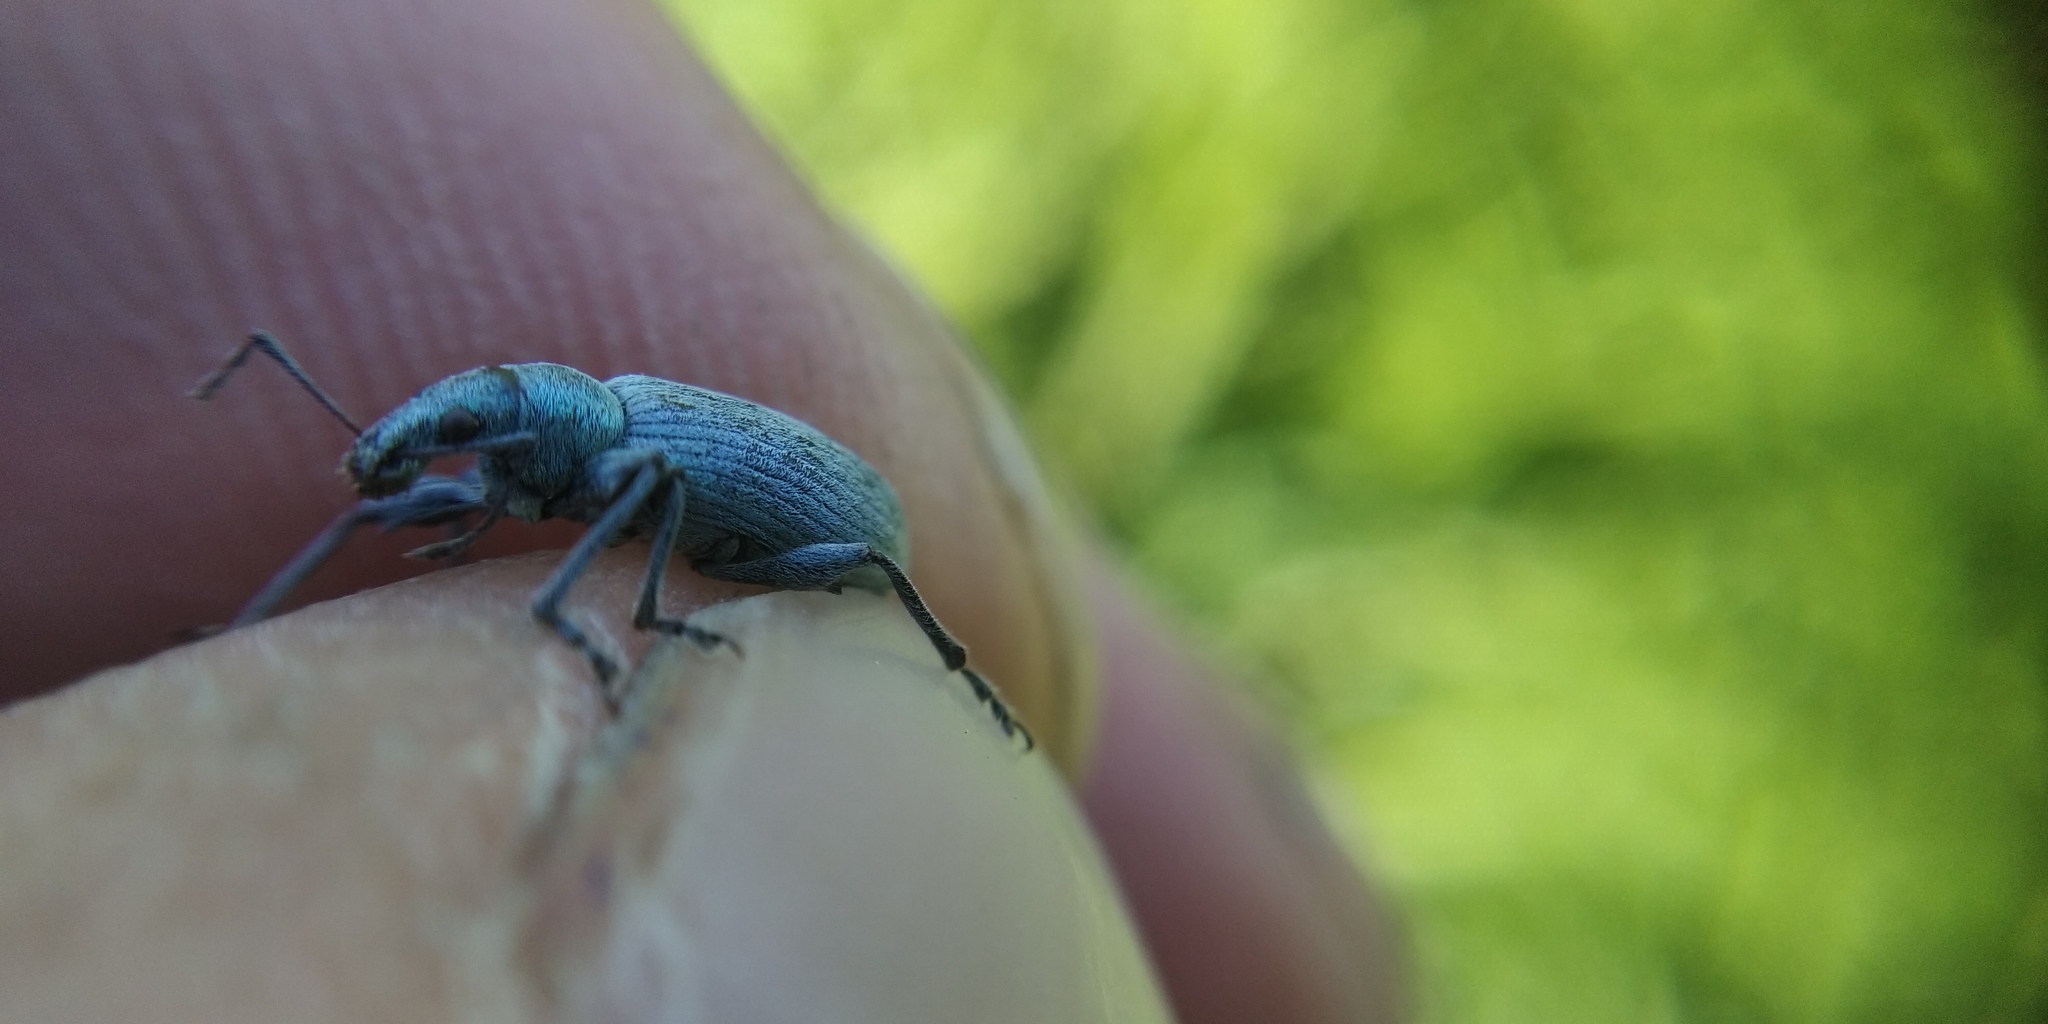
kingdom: Animalia
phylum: Arthropoda
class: Insecta
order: Coleoptera
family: Curculionidae
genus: Phyllobius
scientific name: Phyllobius pomaceus
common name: Green nettle weevil
